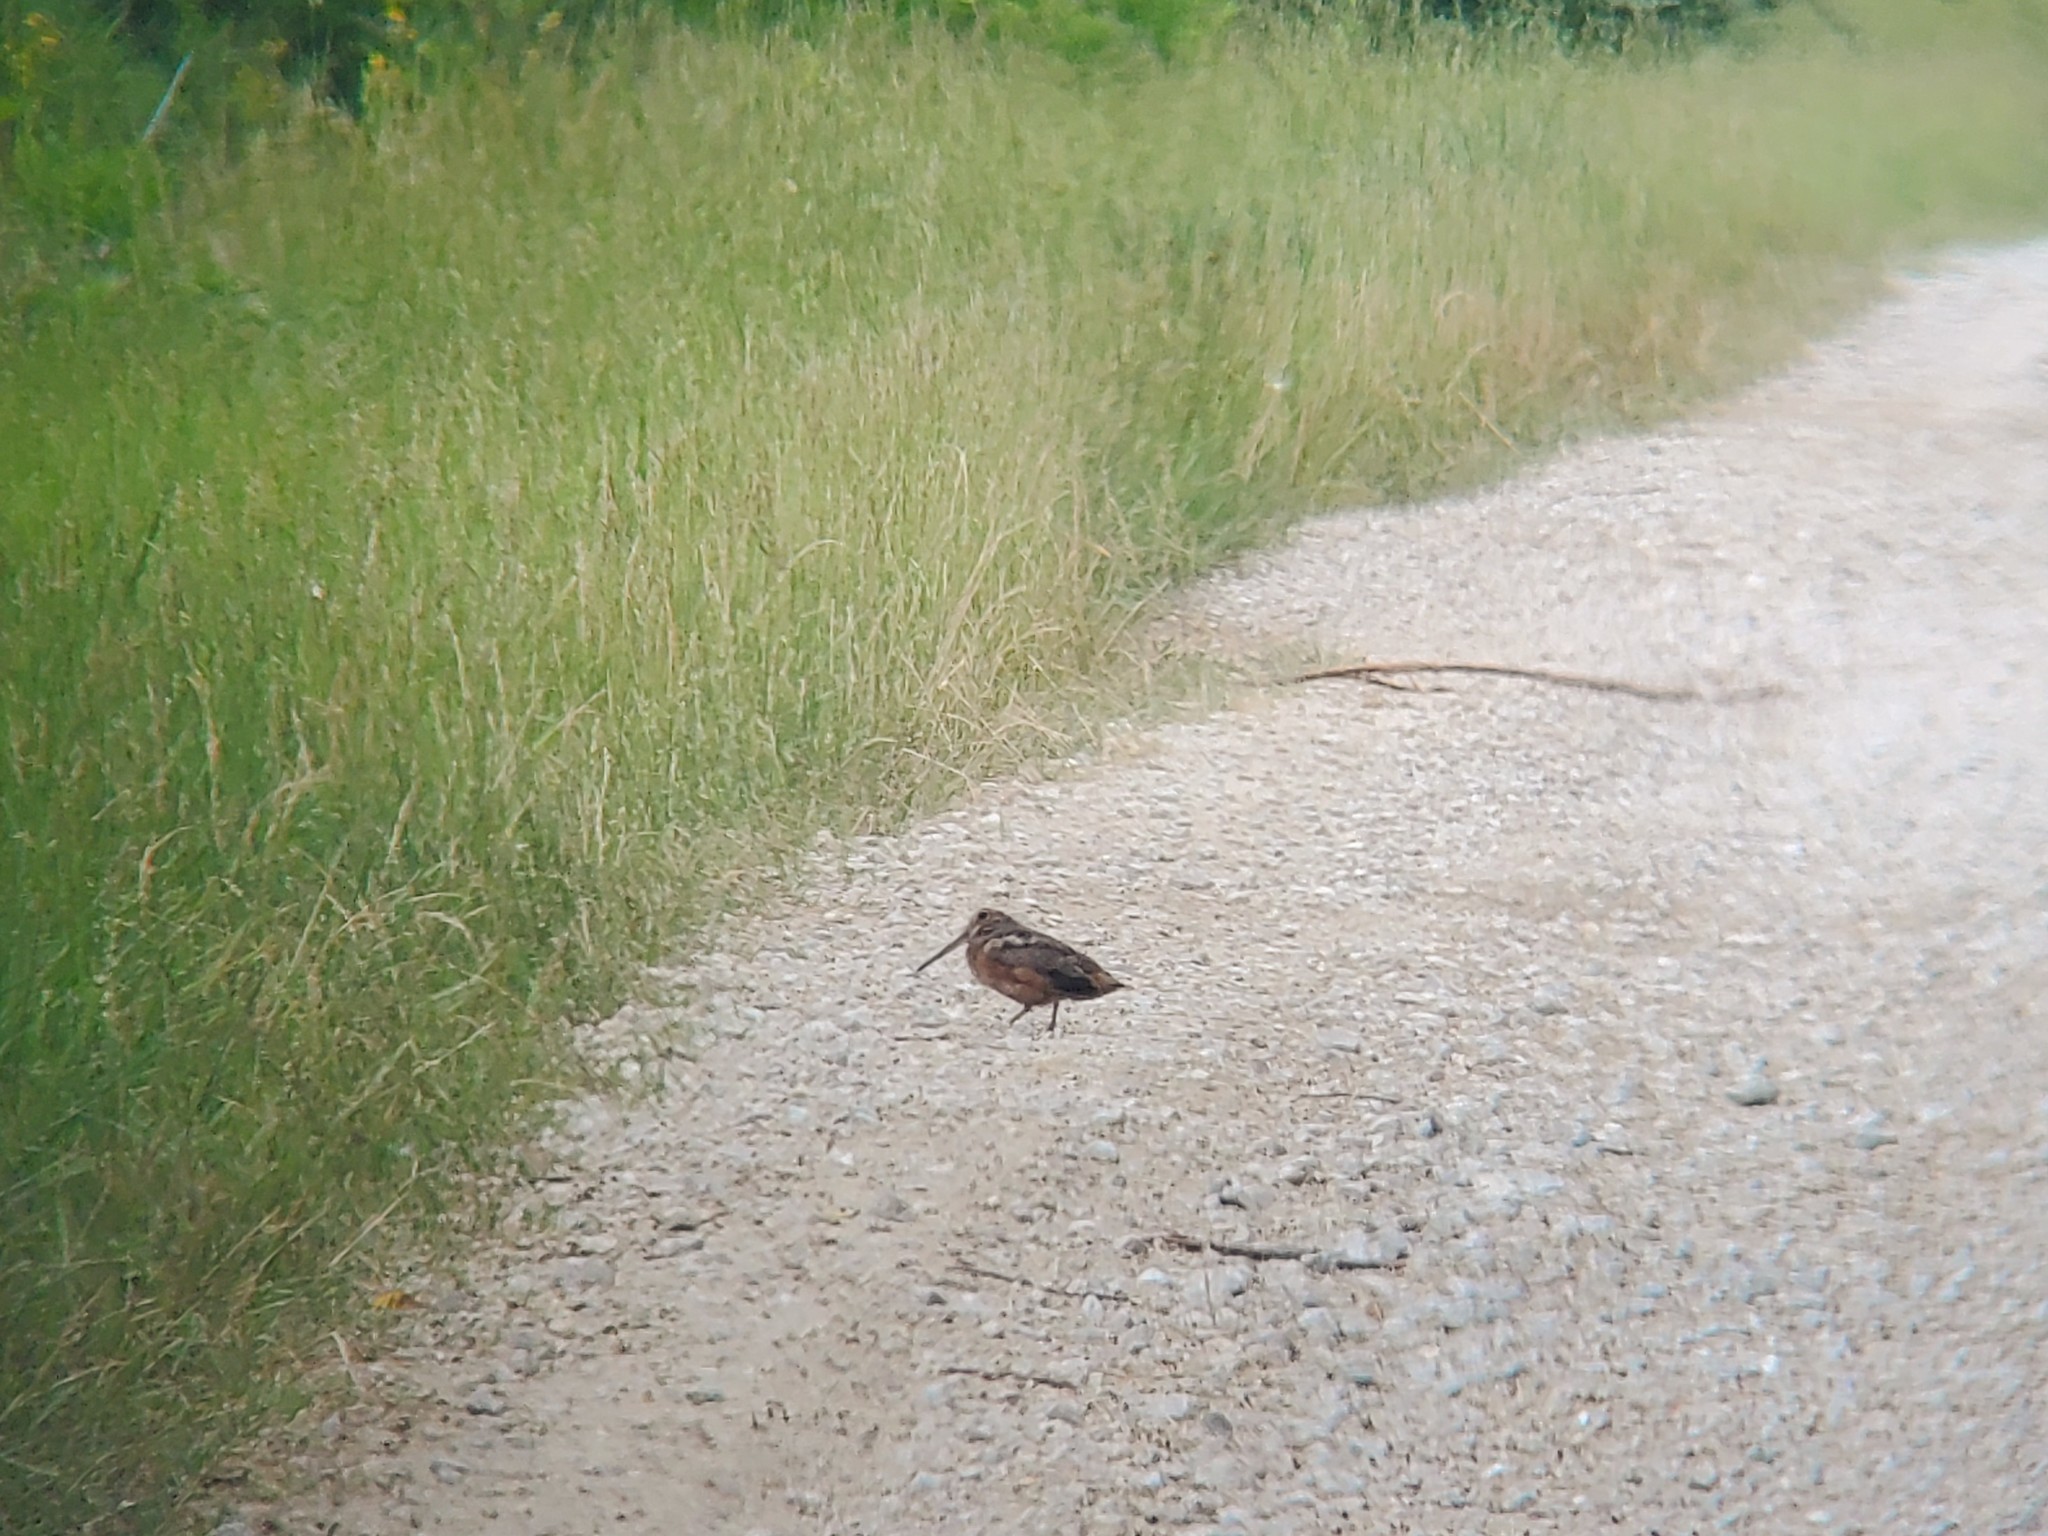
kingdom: Animalia
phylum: Chordata
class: Aves
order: Charadriiformes
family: Scolopacidae
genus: Scolopax
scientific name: Scolopax minor
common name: American woodcock
